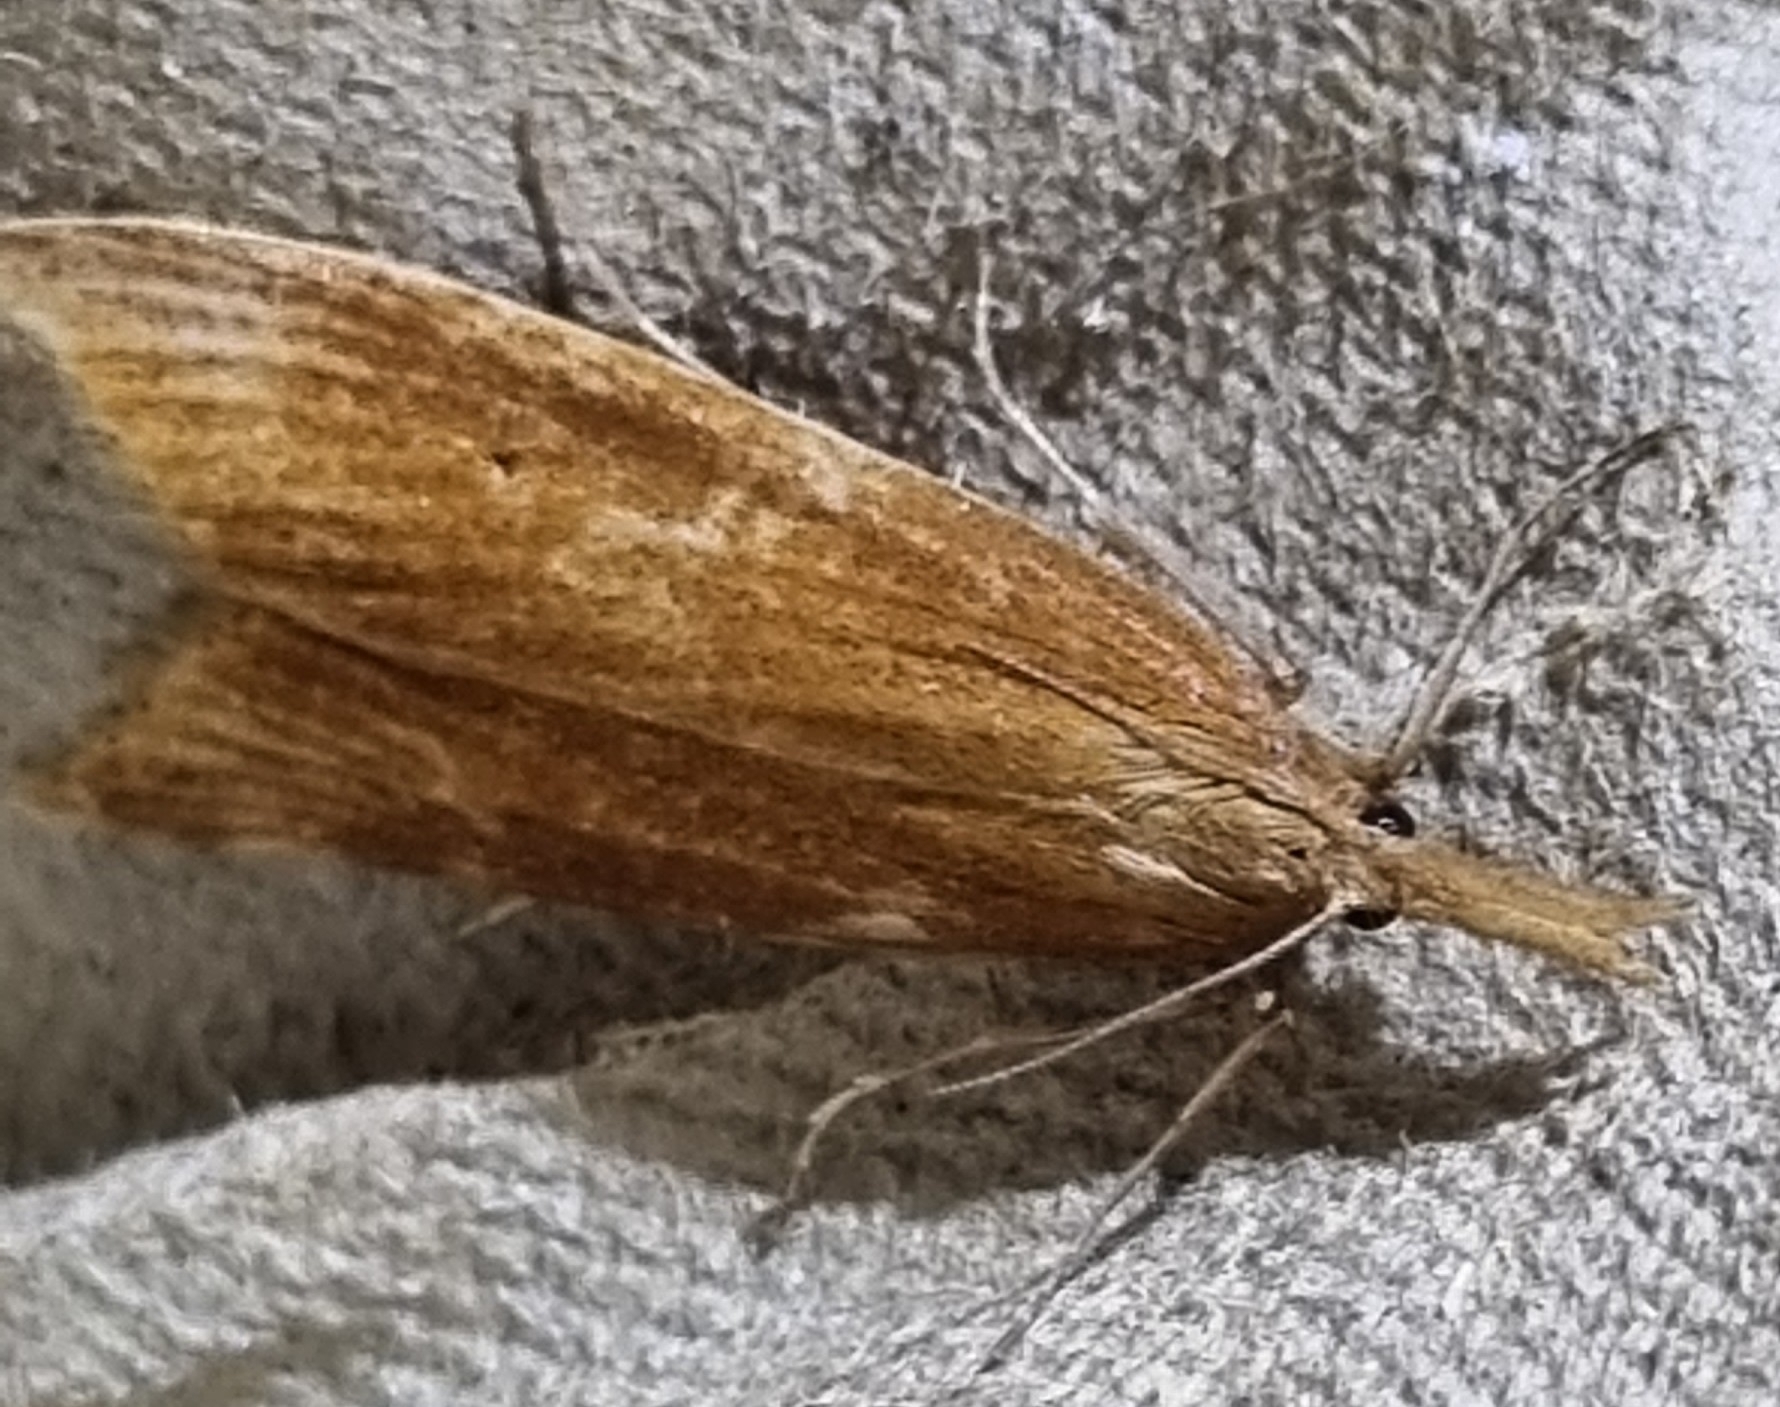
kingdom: Animalia
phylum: Arthropoda
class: Insecta
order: Lepidoptera
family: Crambidae
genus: Chilo
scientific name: Chilo phragmitella
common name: Reed veneer
